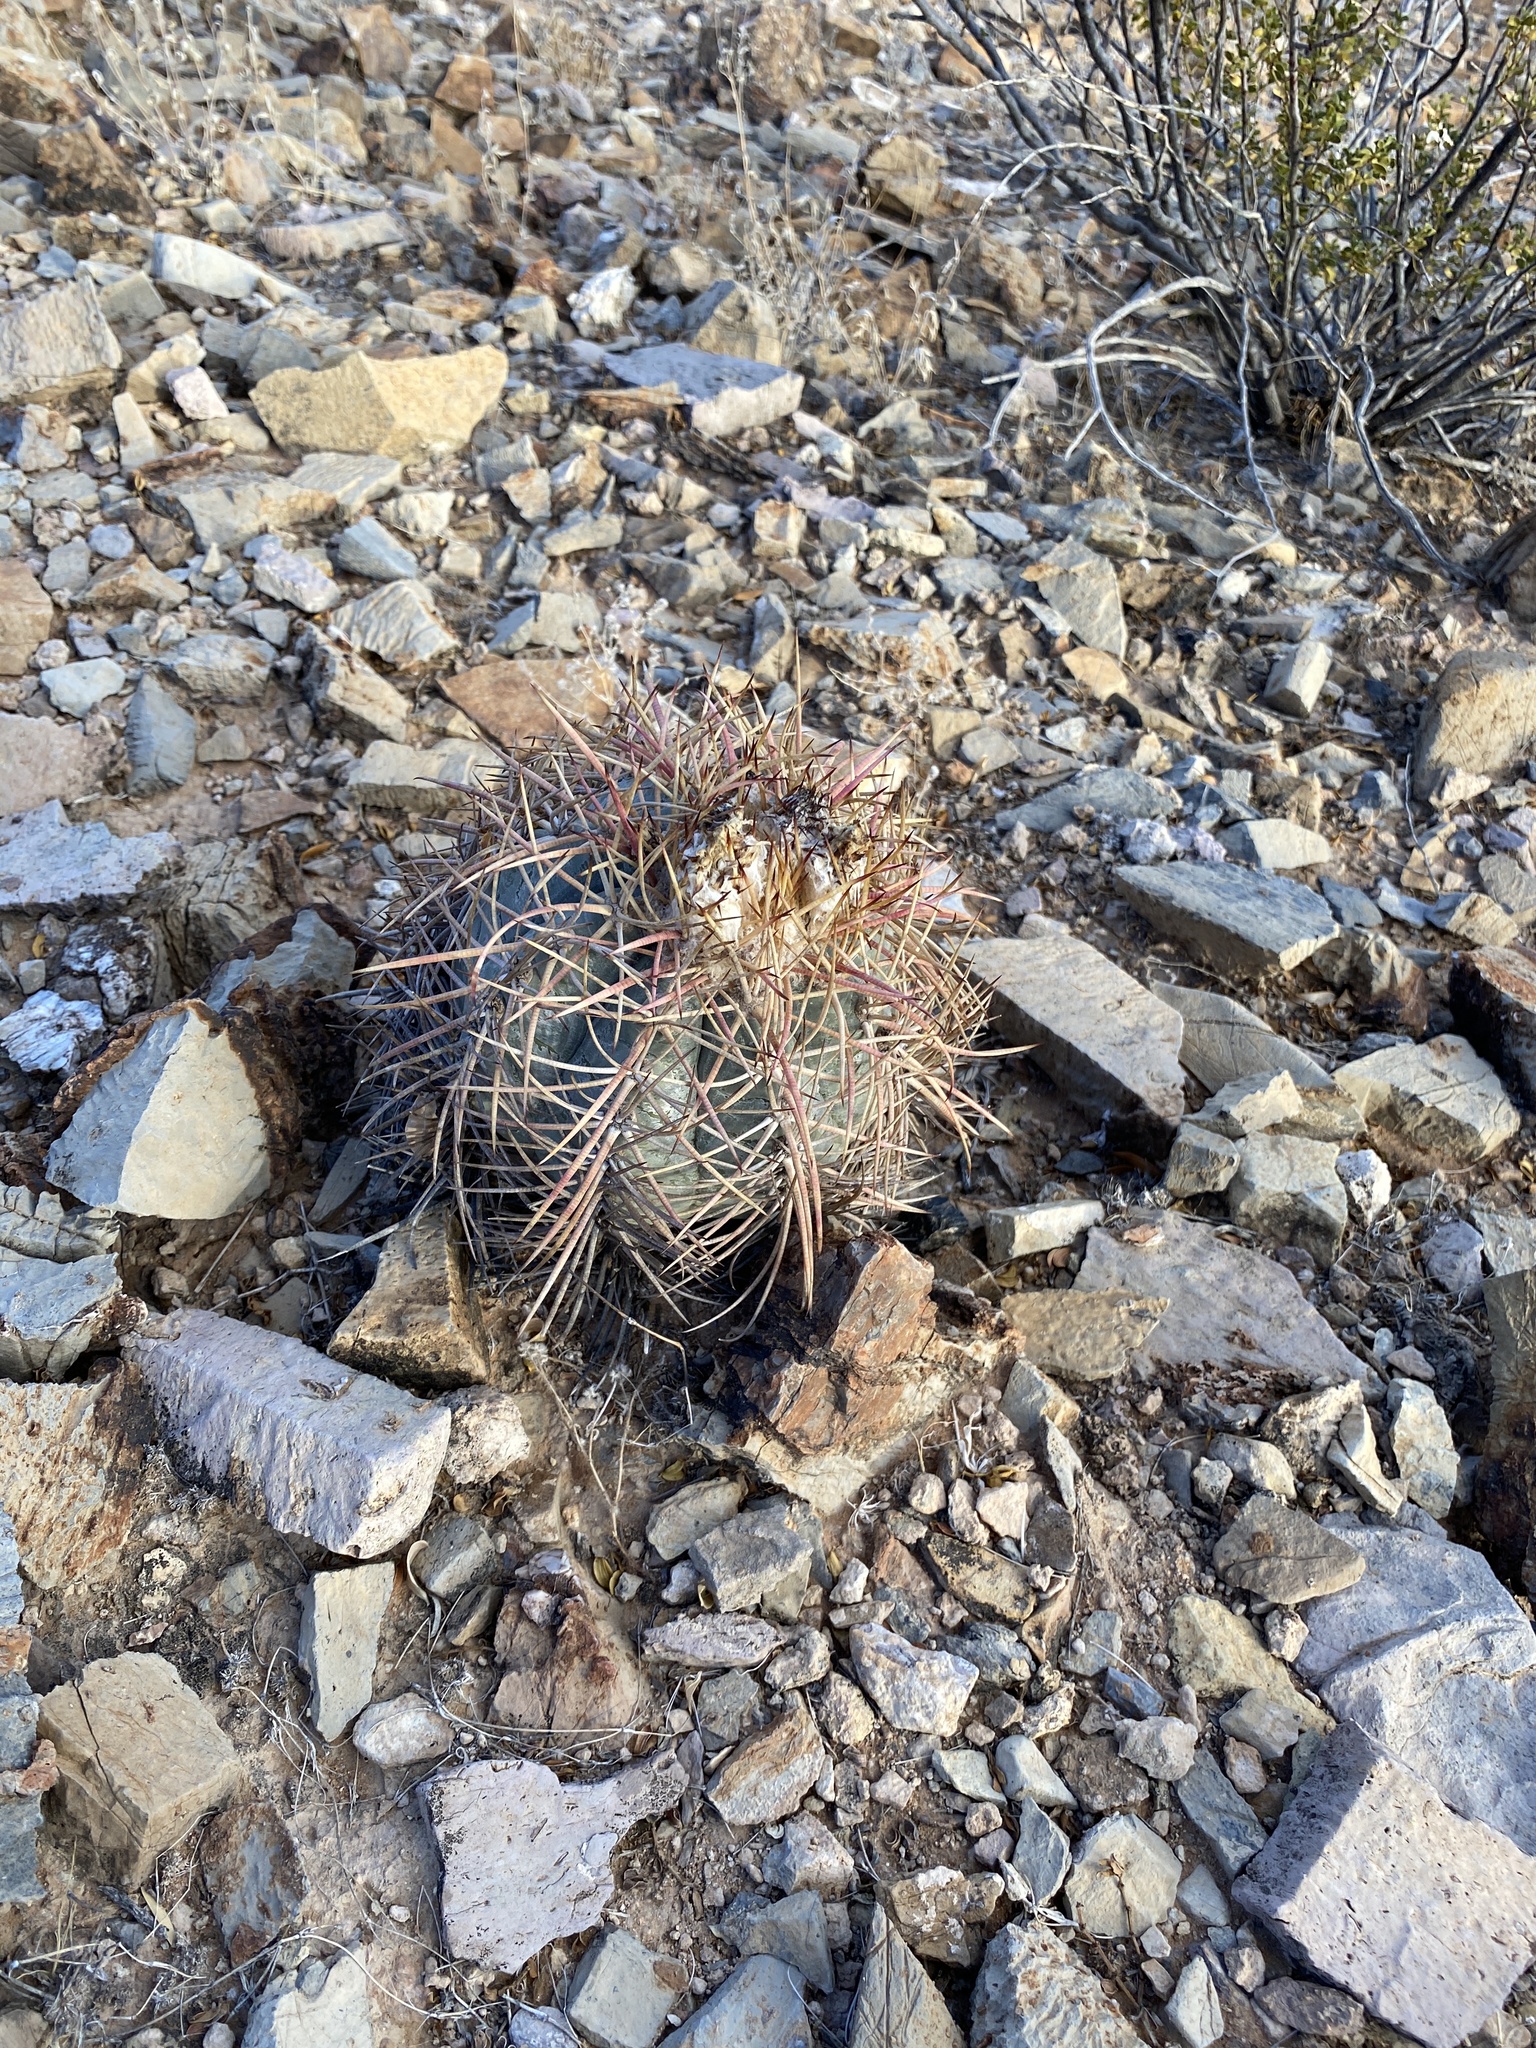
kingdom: Plantae
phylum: Tracheophyta
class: Magnoliopsida
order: Caryophyllales
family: Cactaceae
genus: Echinocactus
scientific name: Echinocactus horizonthalonius
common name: Devilshead
